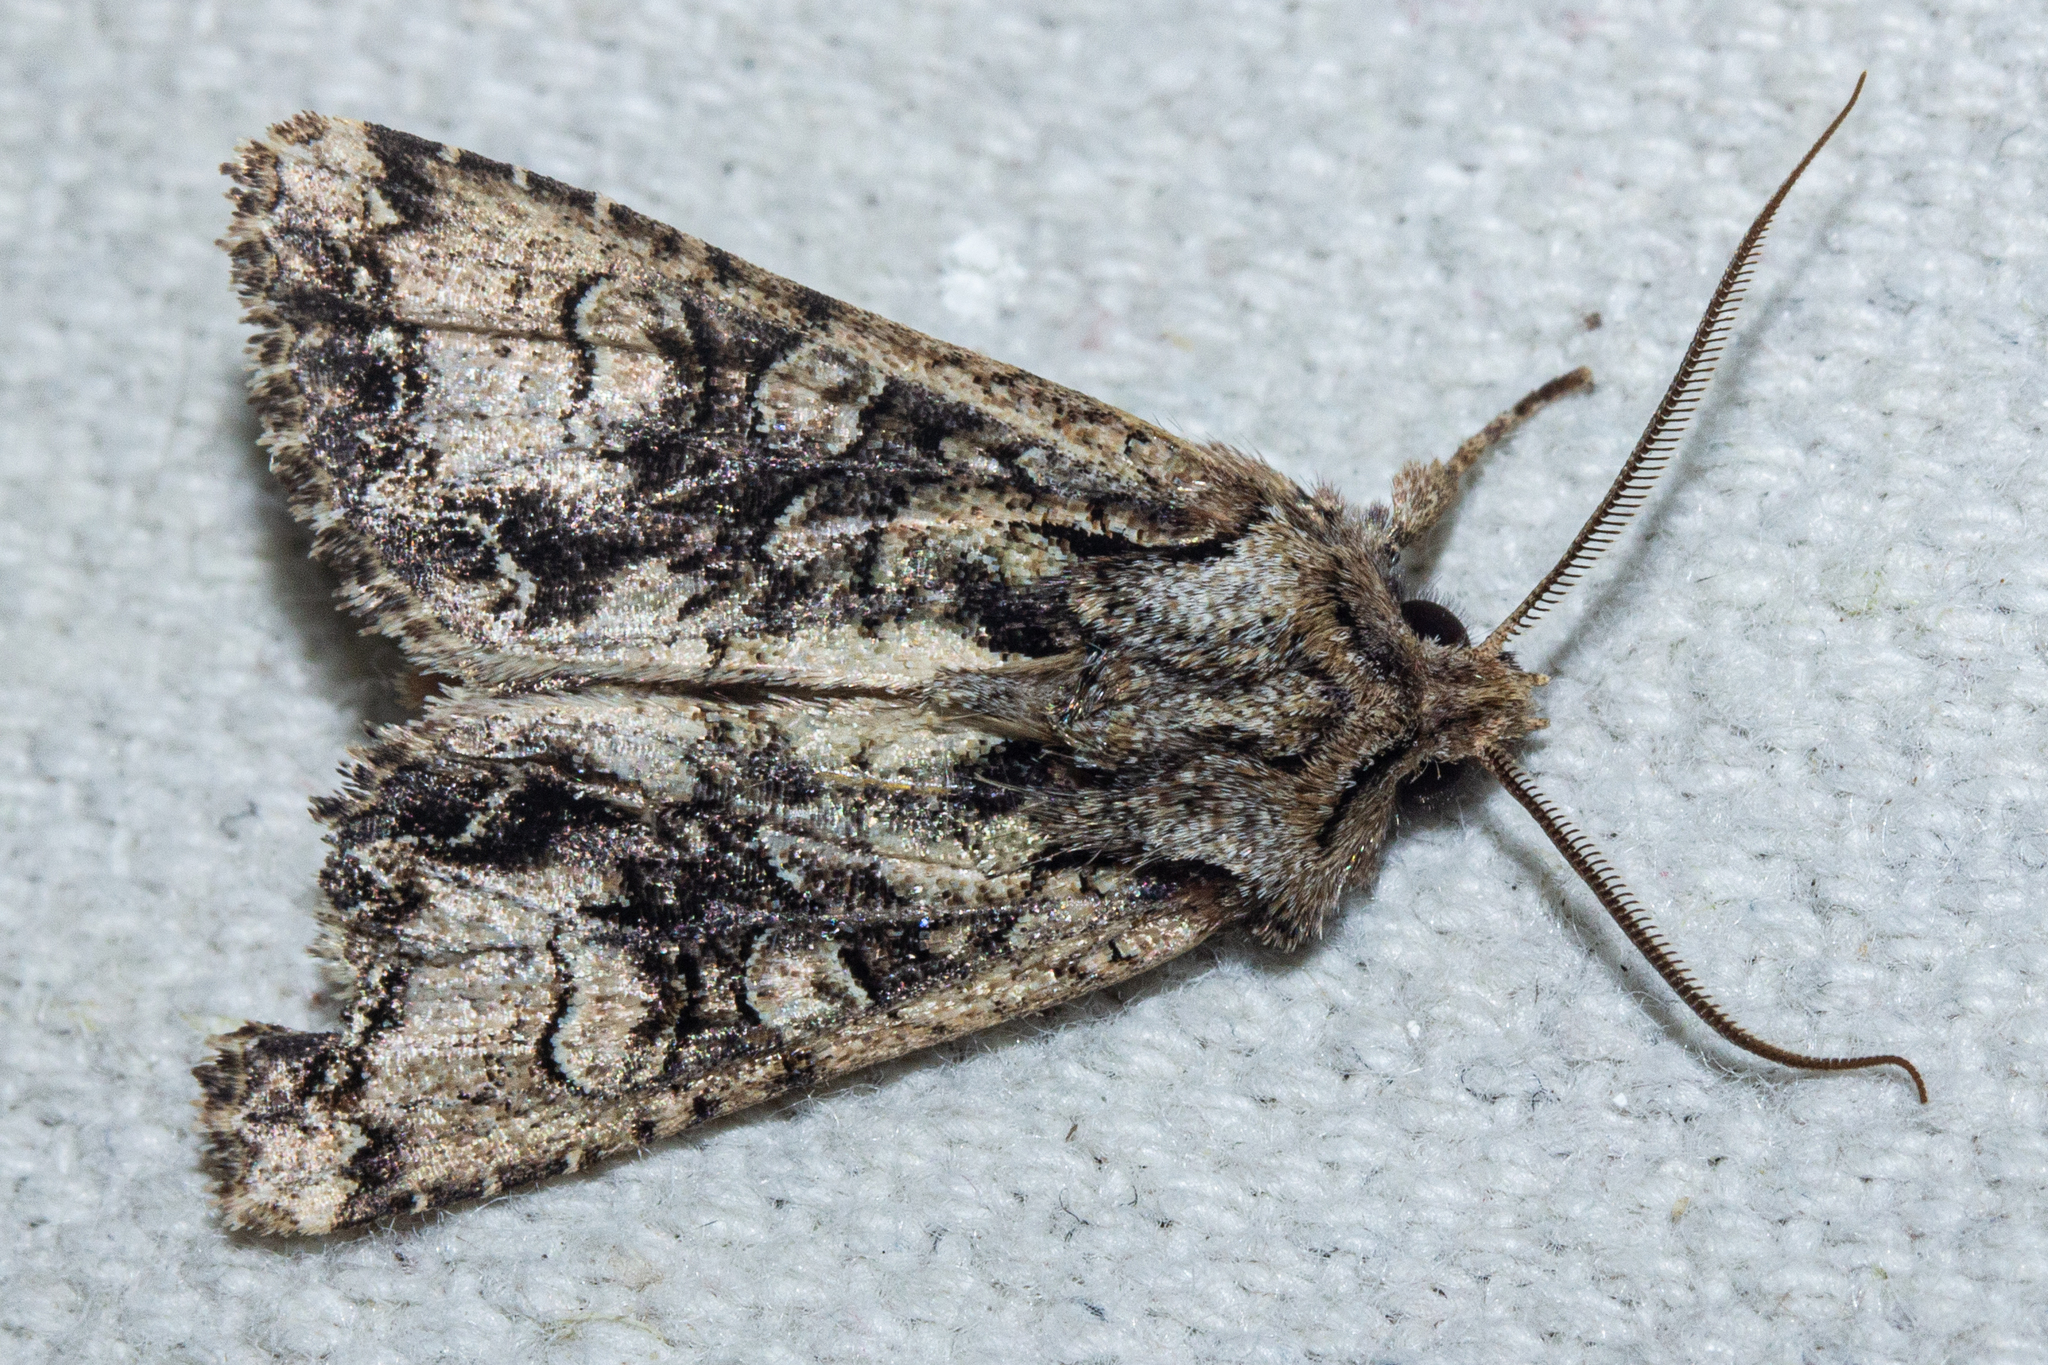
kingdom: Animalia
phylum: Arthropoda
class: Insecta
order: Lepidoptera
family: Noctuidae
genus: Ichneutica
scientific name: Ichneutica skelloni
